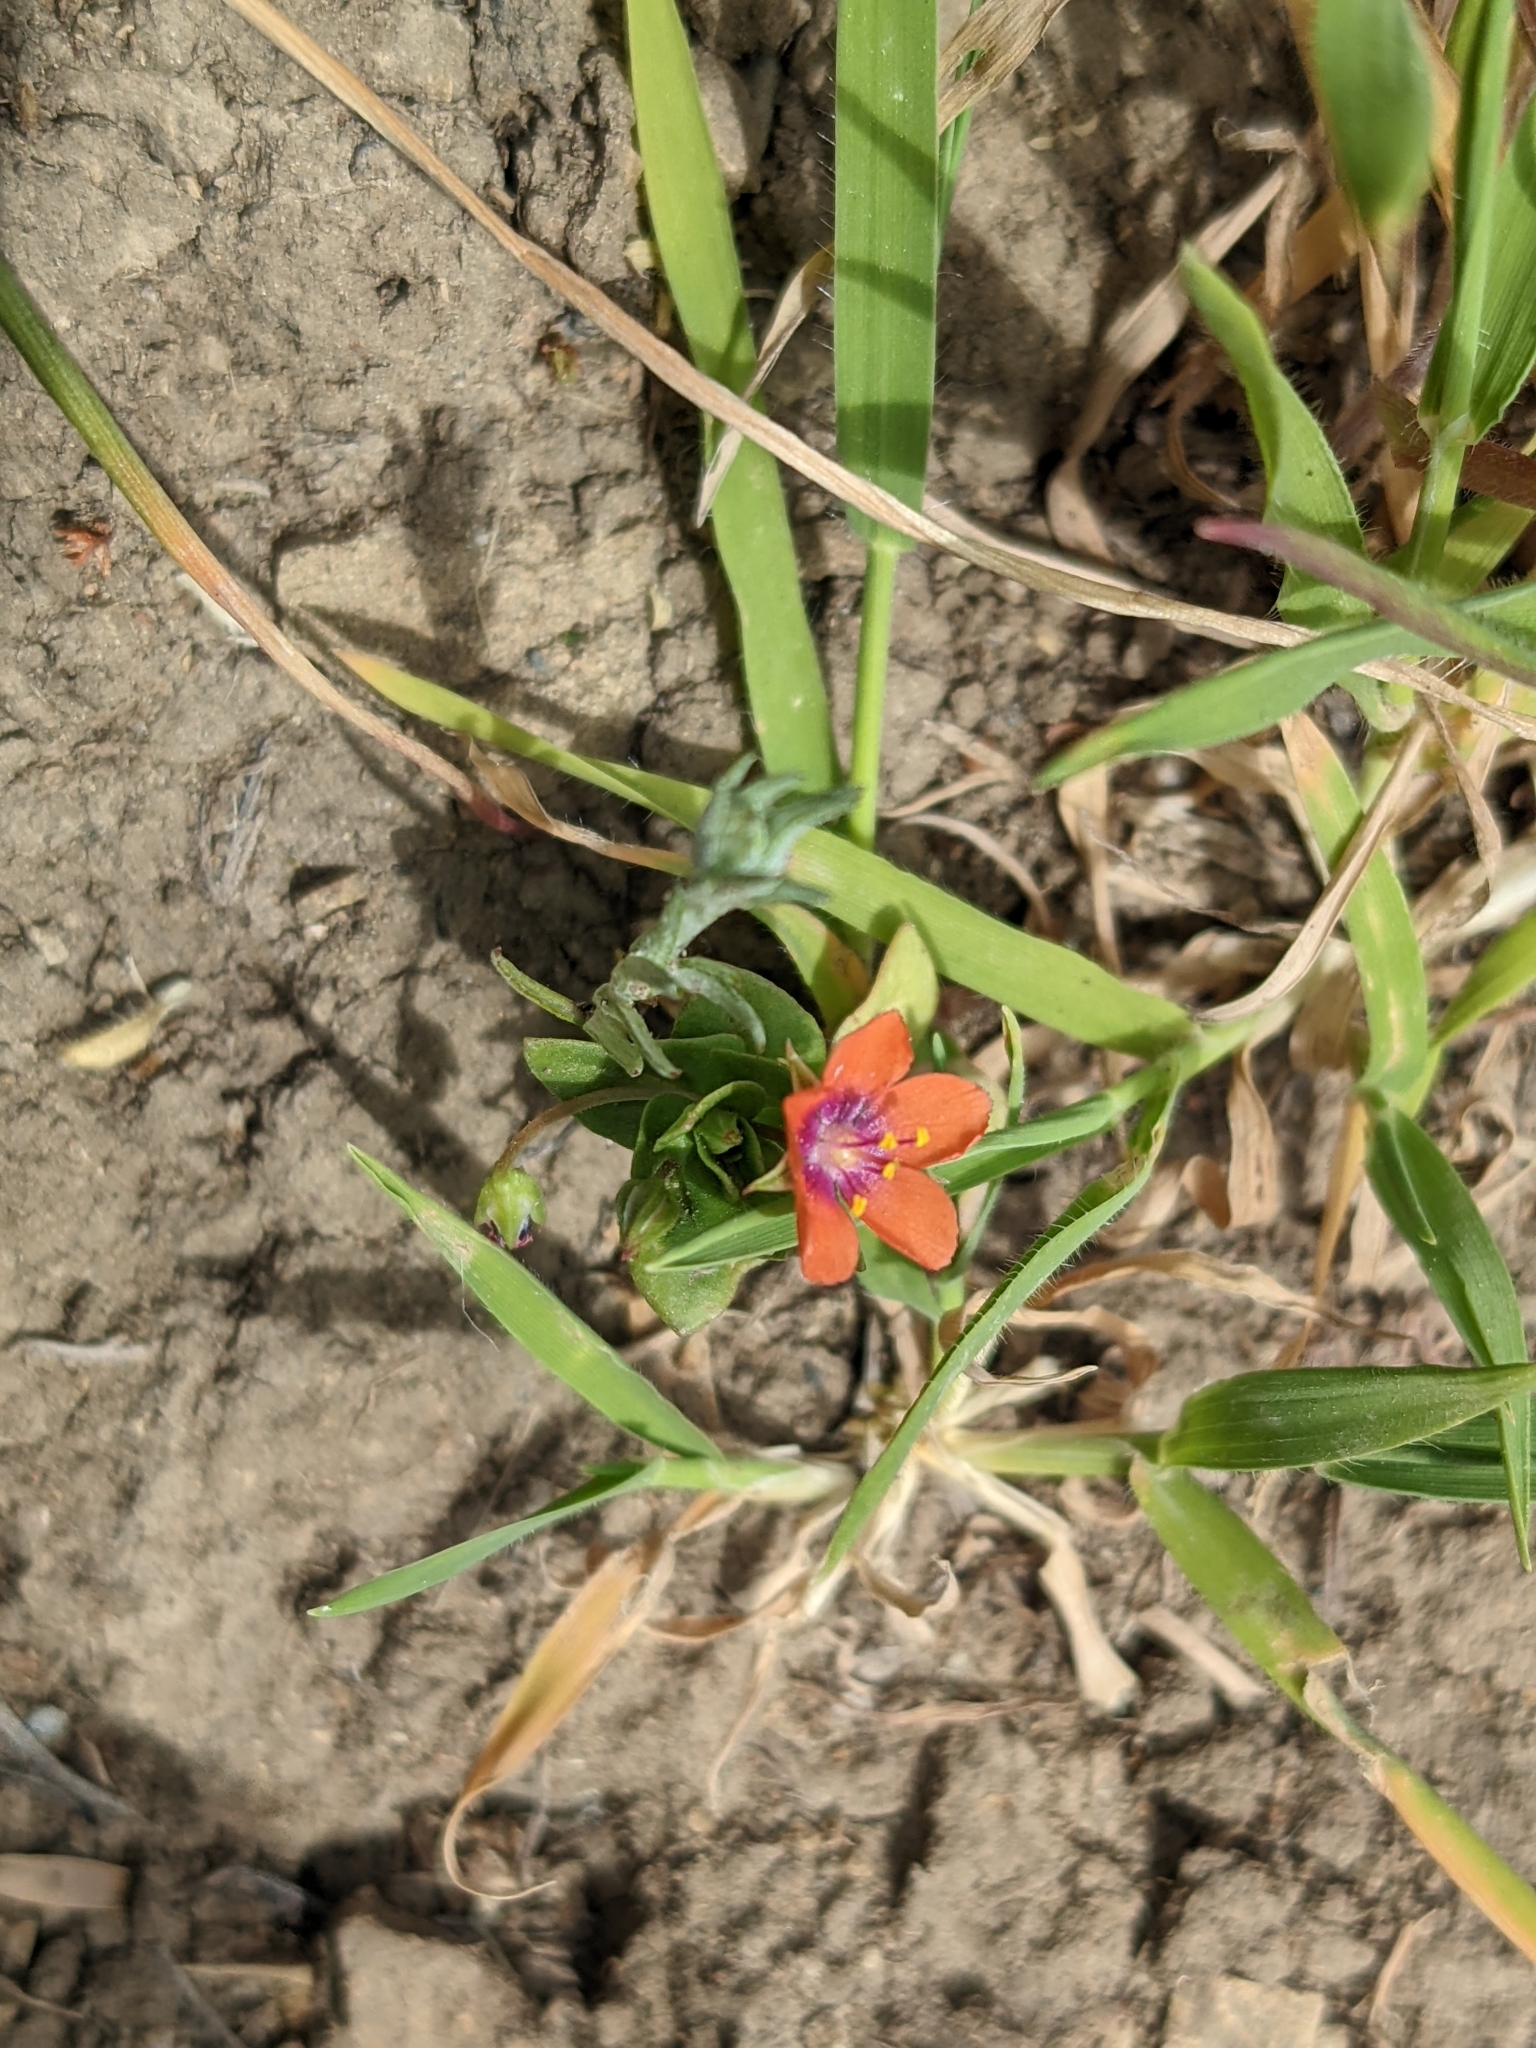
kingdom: Plantae
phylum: Tracheophyta
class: Magnoliopsida
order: Ericales
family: Primulaceae
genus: Lysimachia
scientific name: Lysimachia arvensis
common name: Scarlet pimpernel
